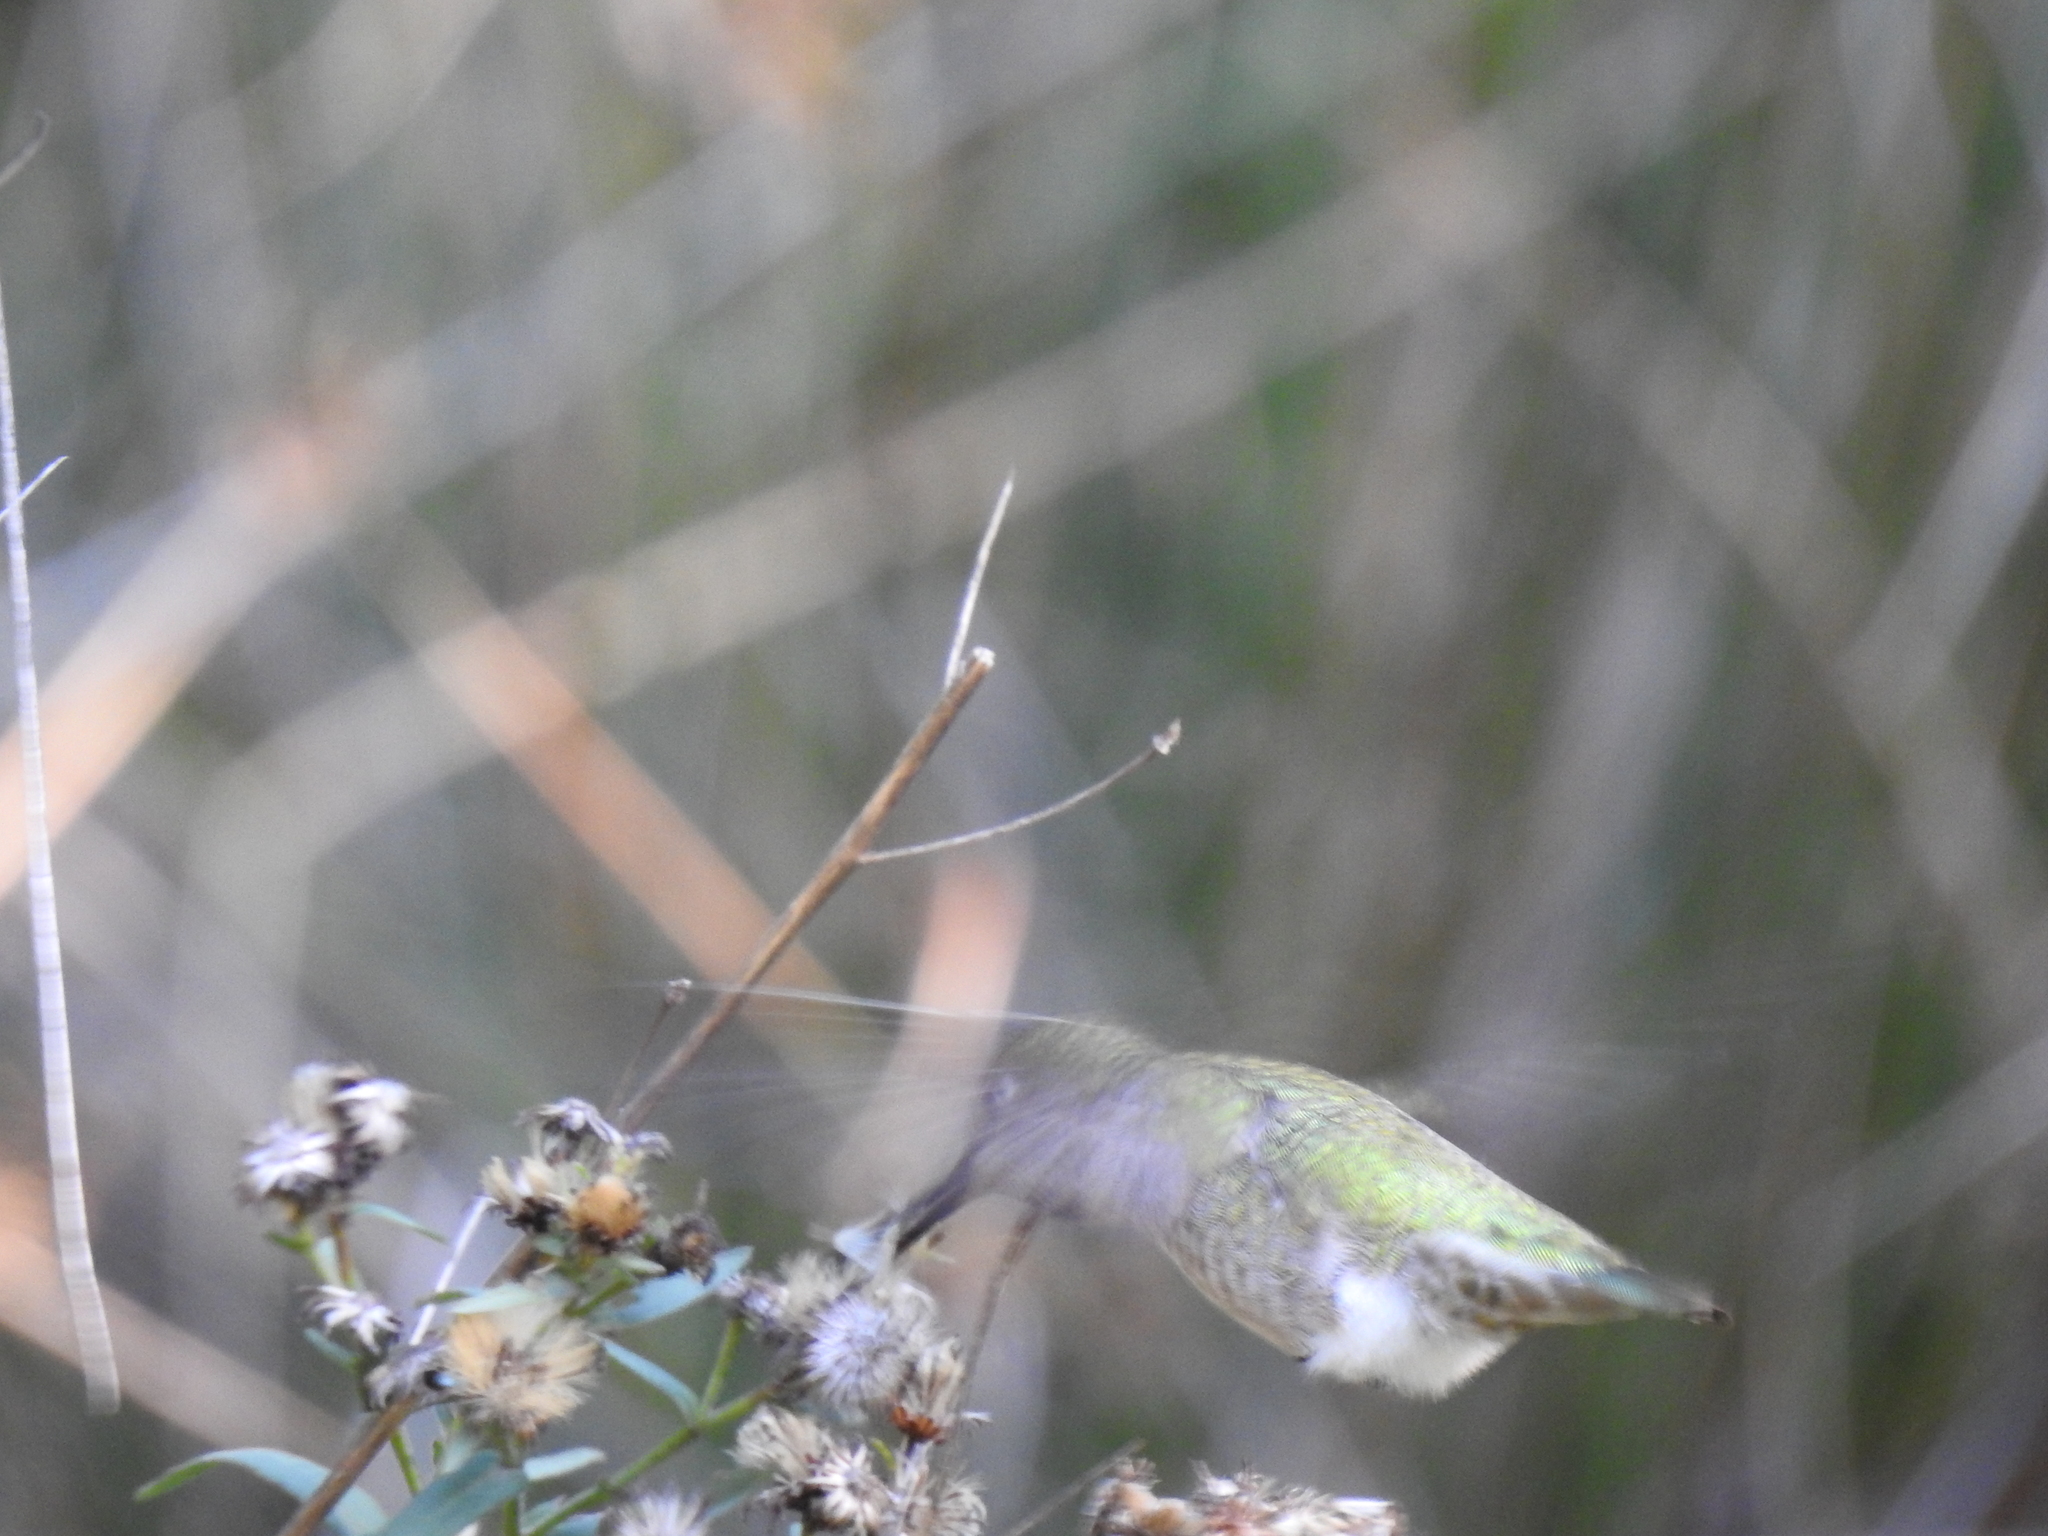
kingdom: Animalia
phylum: Chordata
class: Aves
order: Apodiformes
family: Trochilidae
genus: Calypte
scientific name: Calypte anna
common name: Anna's hummingbird
